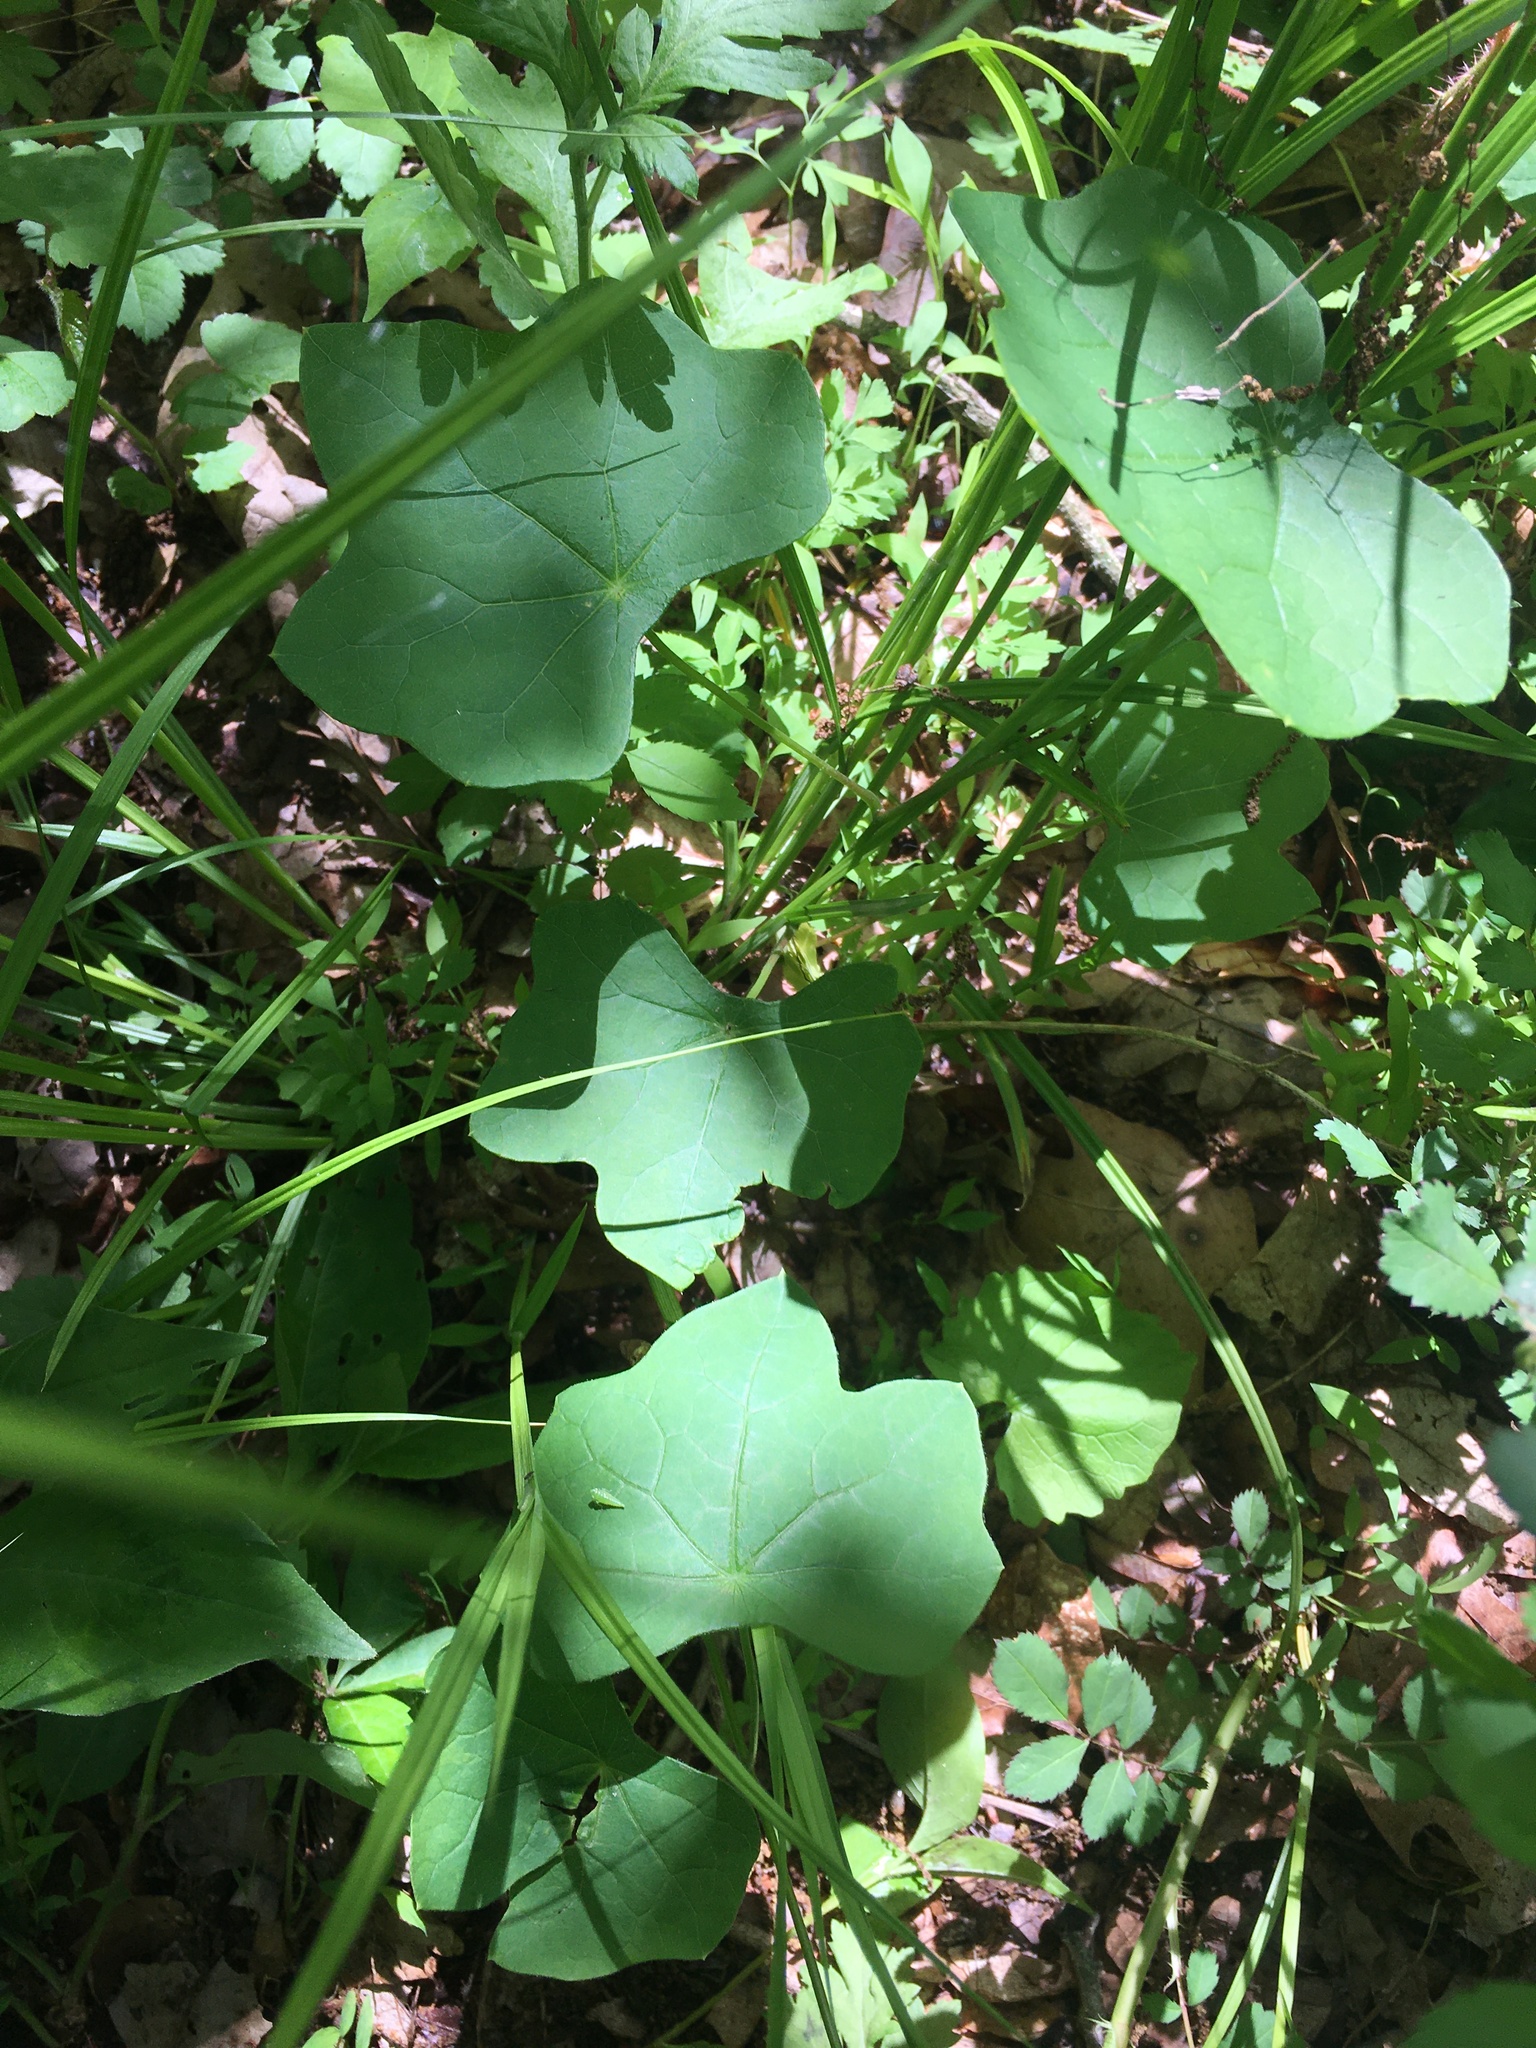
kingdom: Plantae
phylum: Tracheophyta
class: Magnoliopsida
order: Cucurbitales
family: Cucurbitaceae
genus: Echinocystis
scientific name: Echinocystis lobata
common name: Wild cucumber
